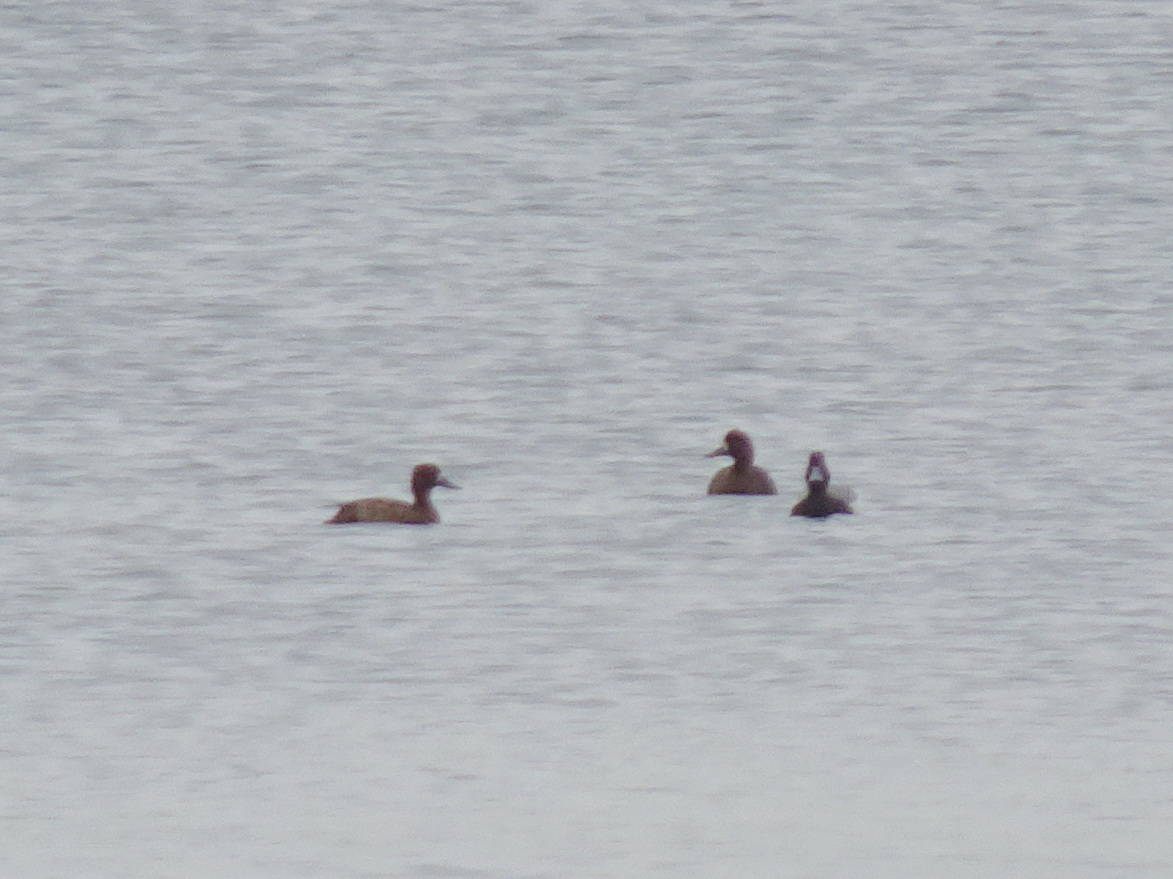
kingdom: Animalia
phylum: Chordata
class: Aves
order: Anseriformes
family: Anatidae
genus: Aythya
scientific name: Aythya affinis
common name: Lesser scaup
